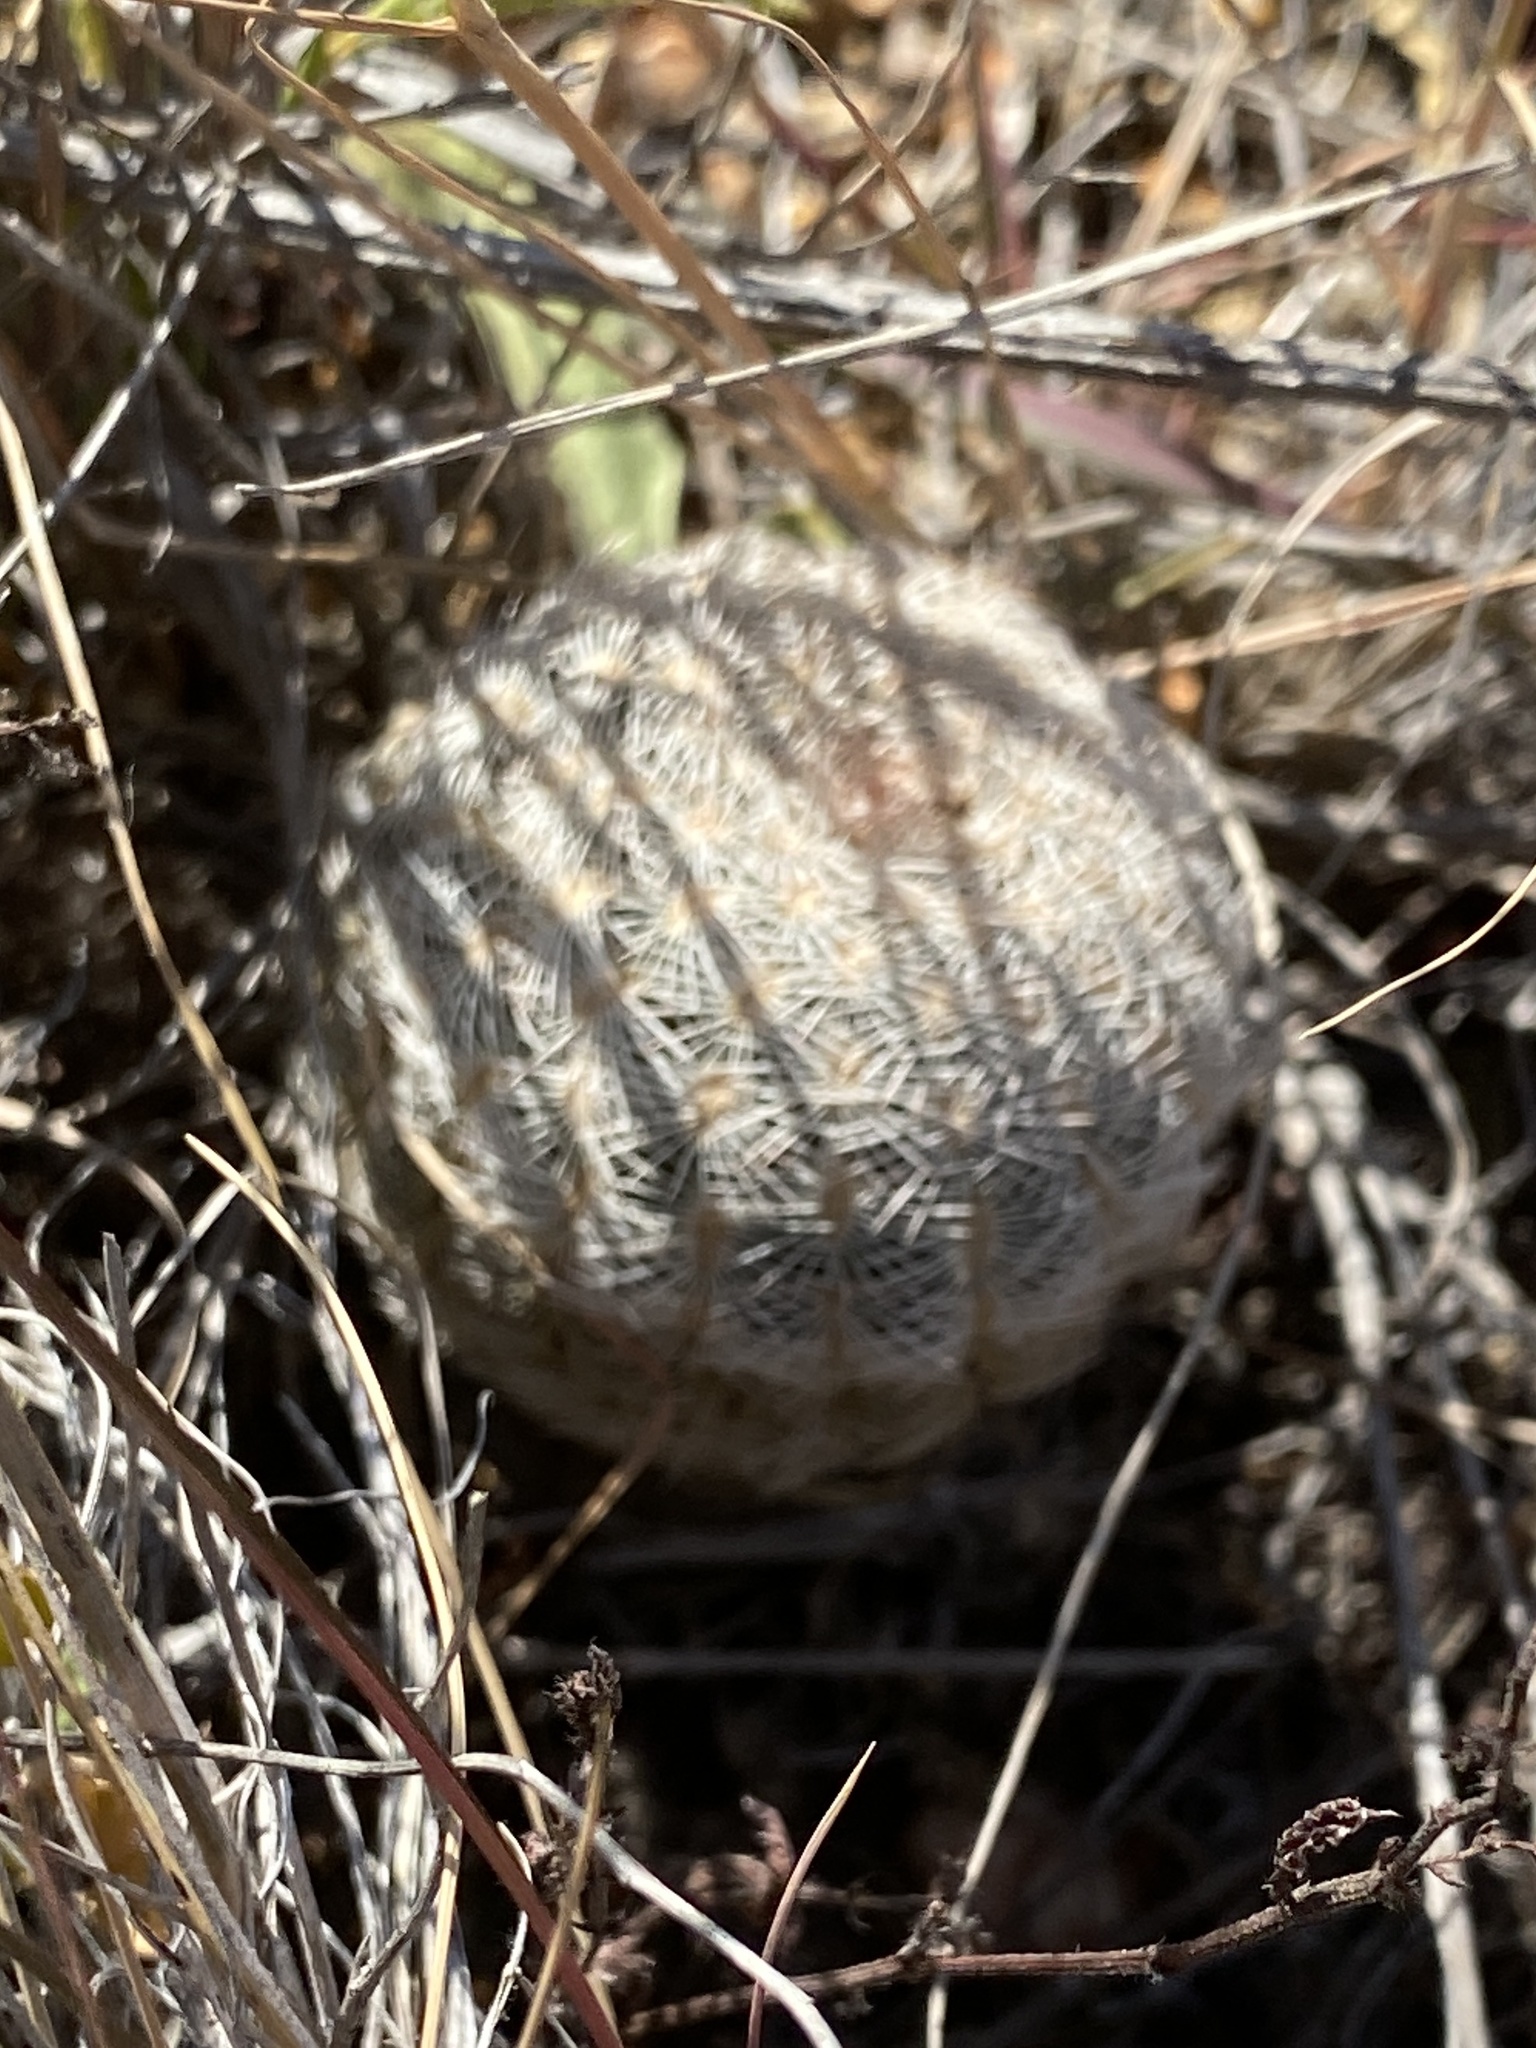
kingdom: Plantae
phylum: Tracheophyta
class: Magnoliopsida
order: Caryophyllales
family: Cactaceae
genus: Echinocereus
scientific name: Echinocereus reichenbachii
